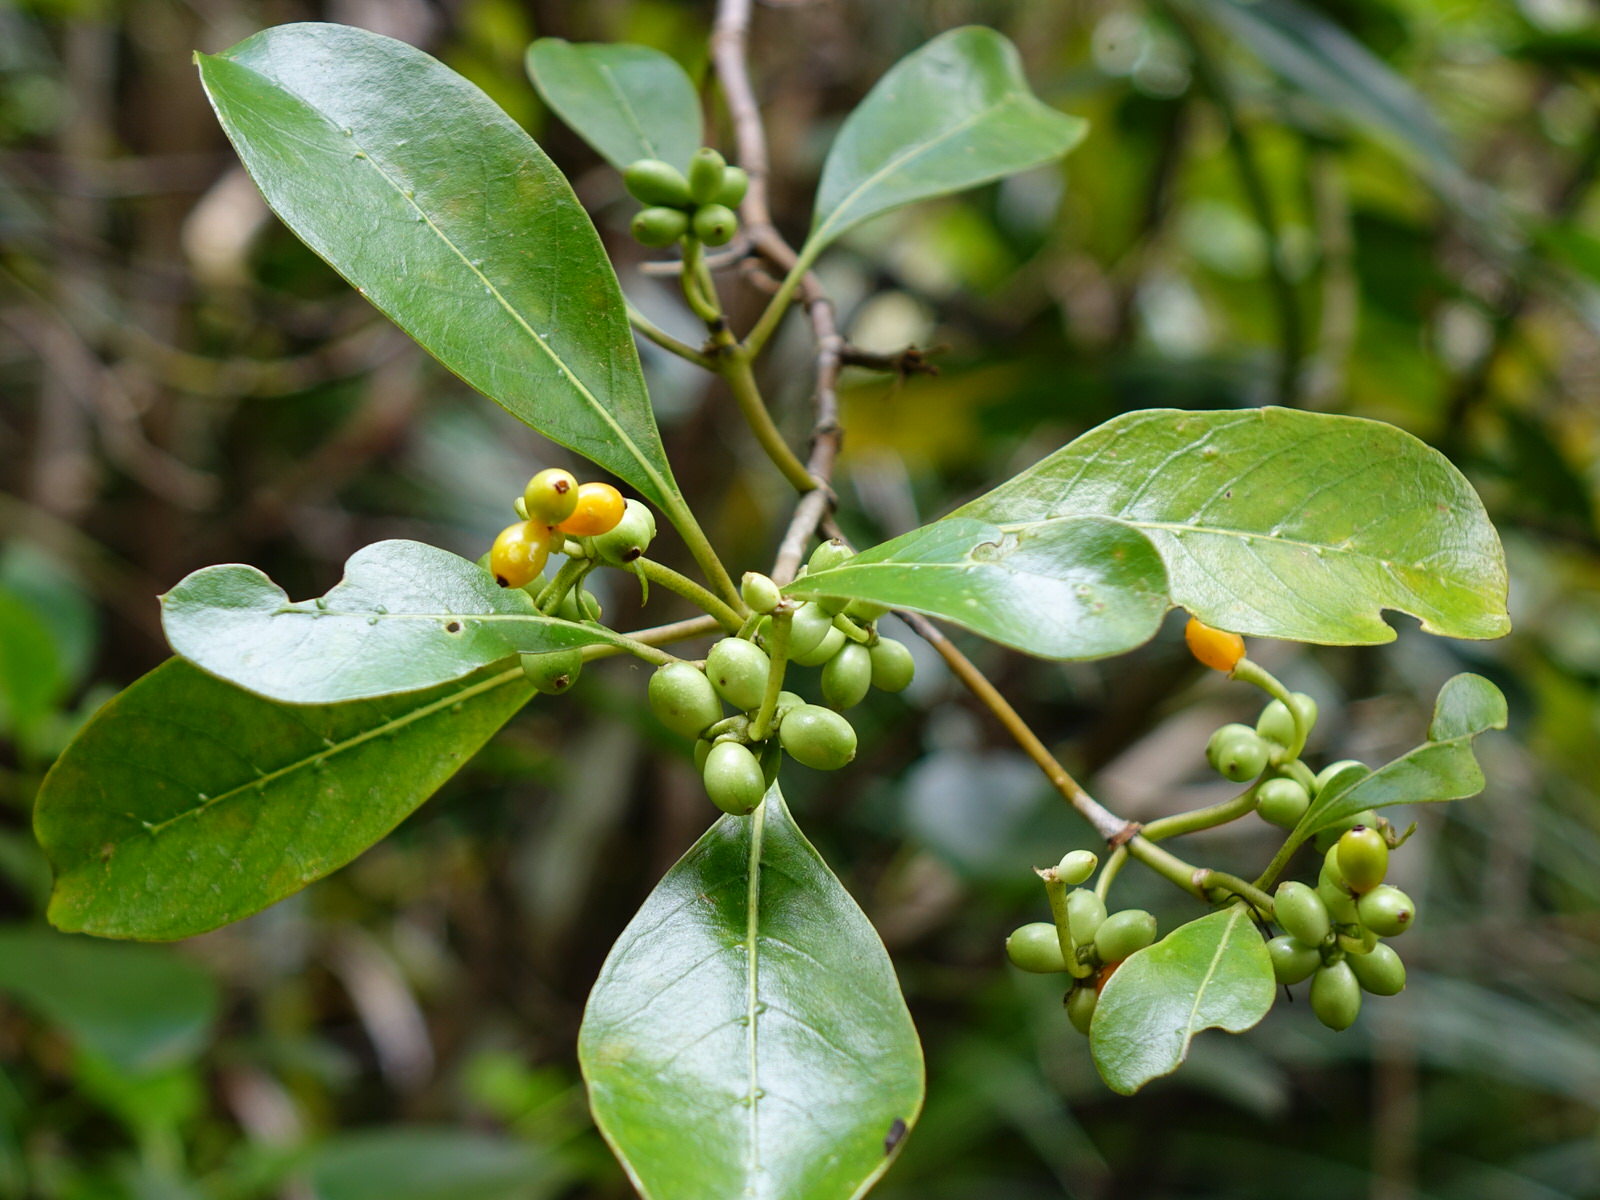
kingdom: Plantae
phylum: Tracheophyta
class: Magnoliopsida
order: Gentianales
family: Rubiaceae
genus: Coprosma
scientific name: Coprosma lucida
